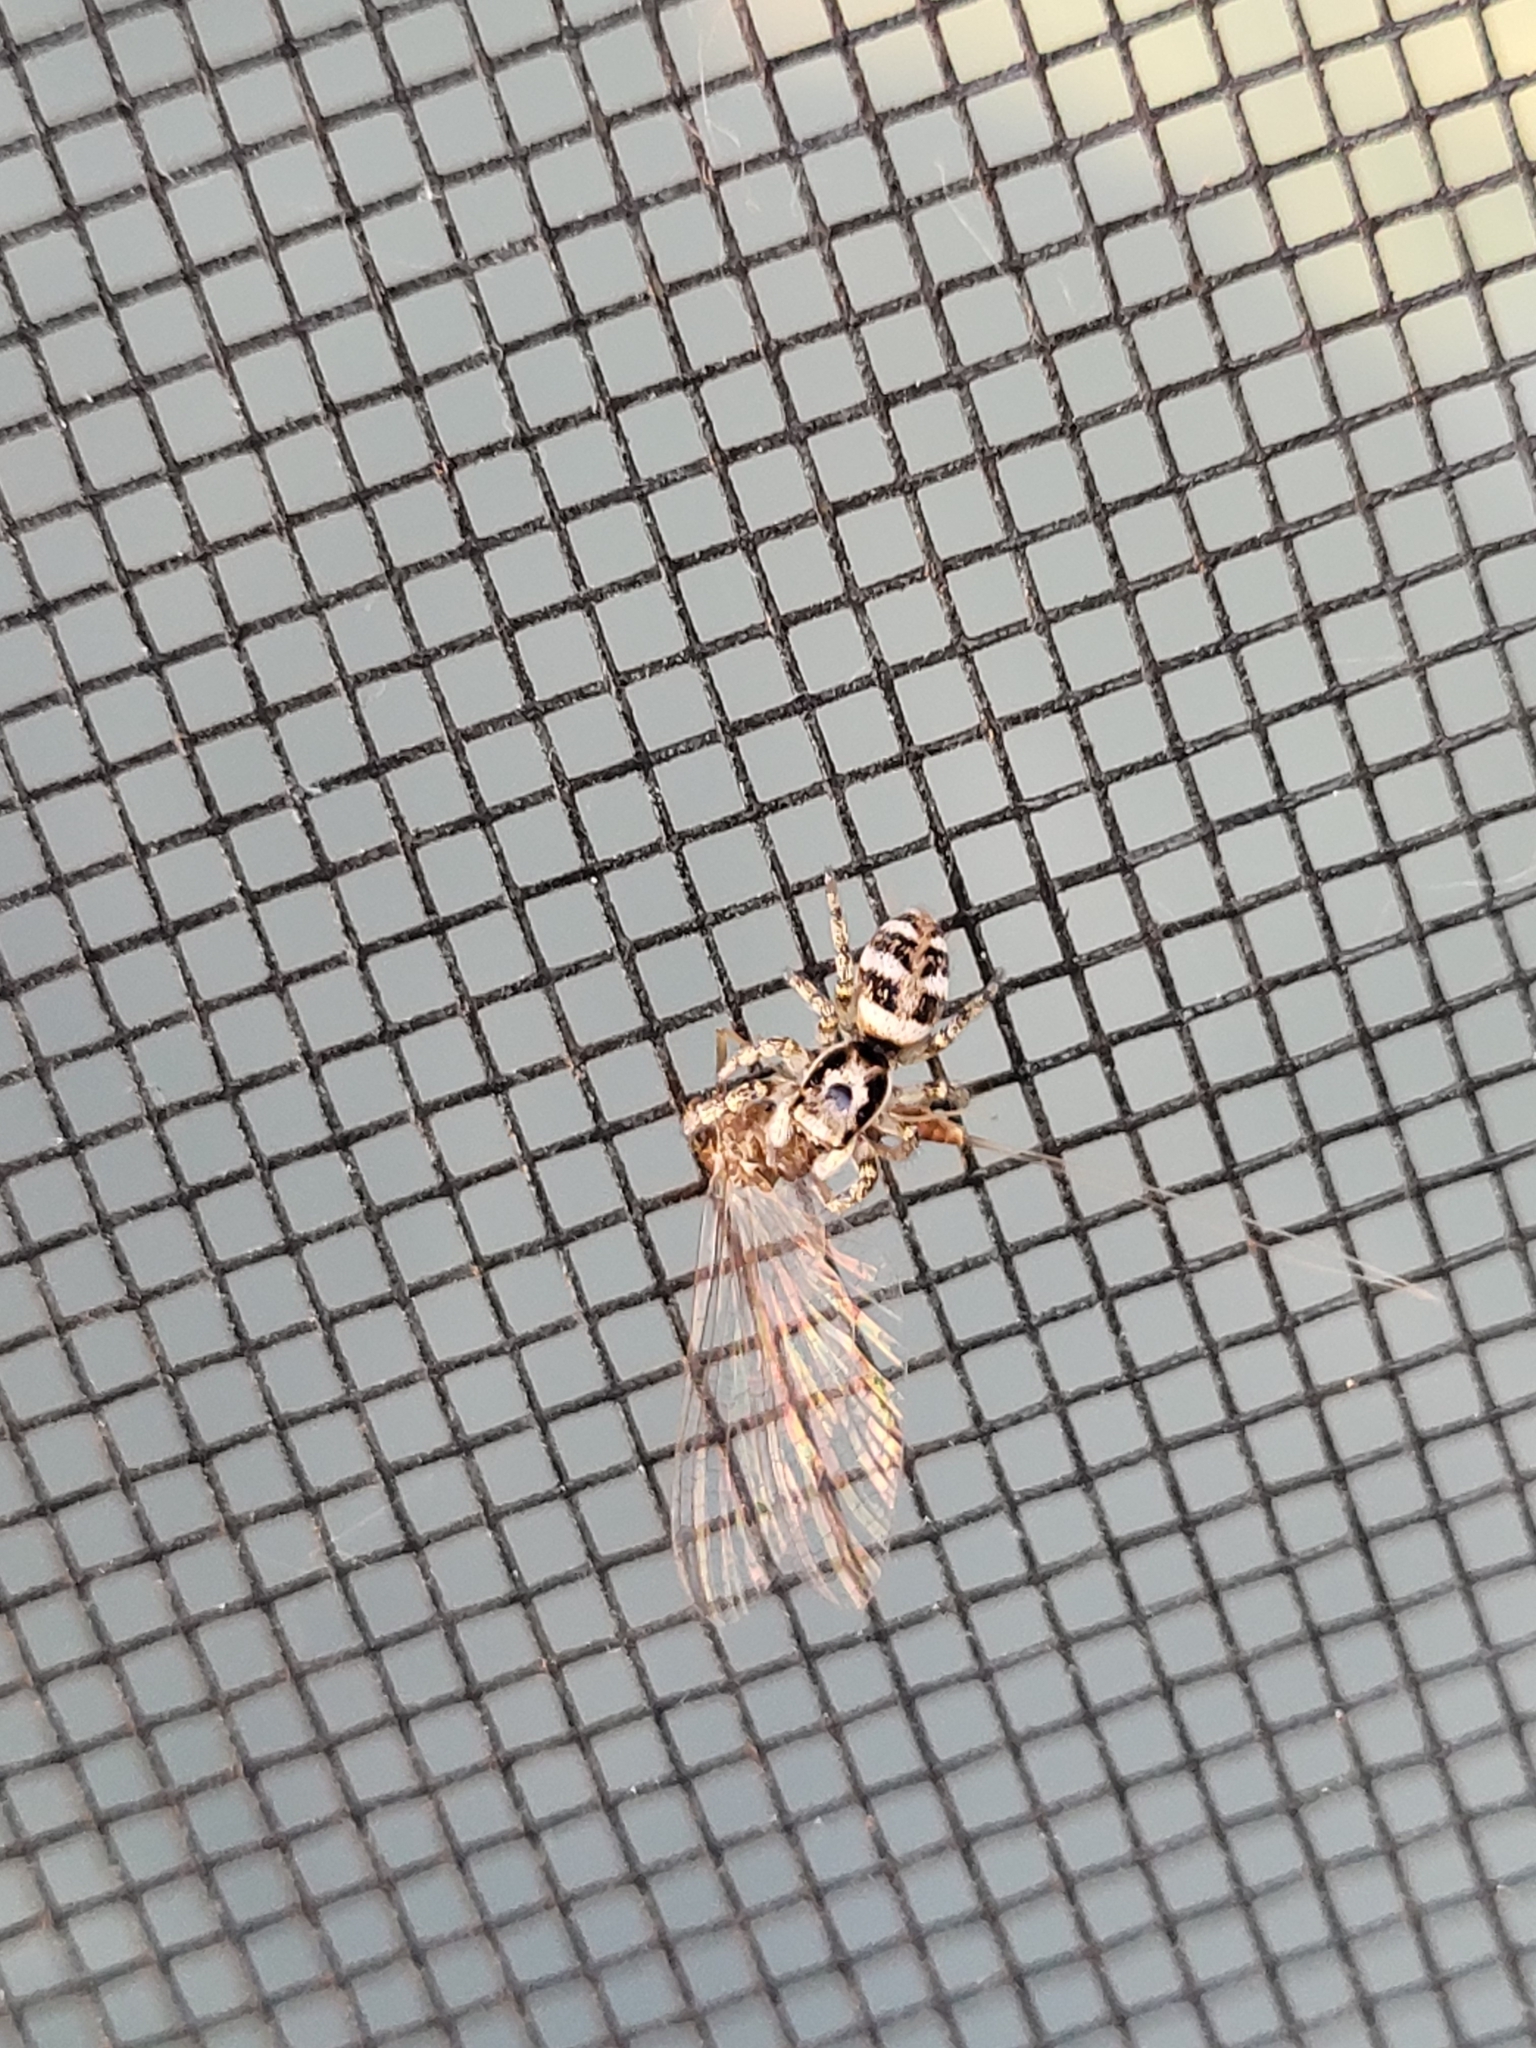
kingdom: Animalia
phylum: Arthropoda
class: Arachnida
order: Araneae
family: Salticidae
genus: Salticus
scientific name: Salticus scenicus
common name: Zebra jumper
